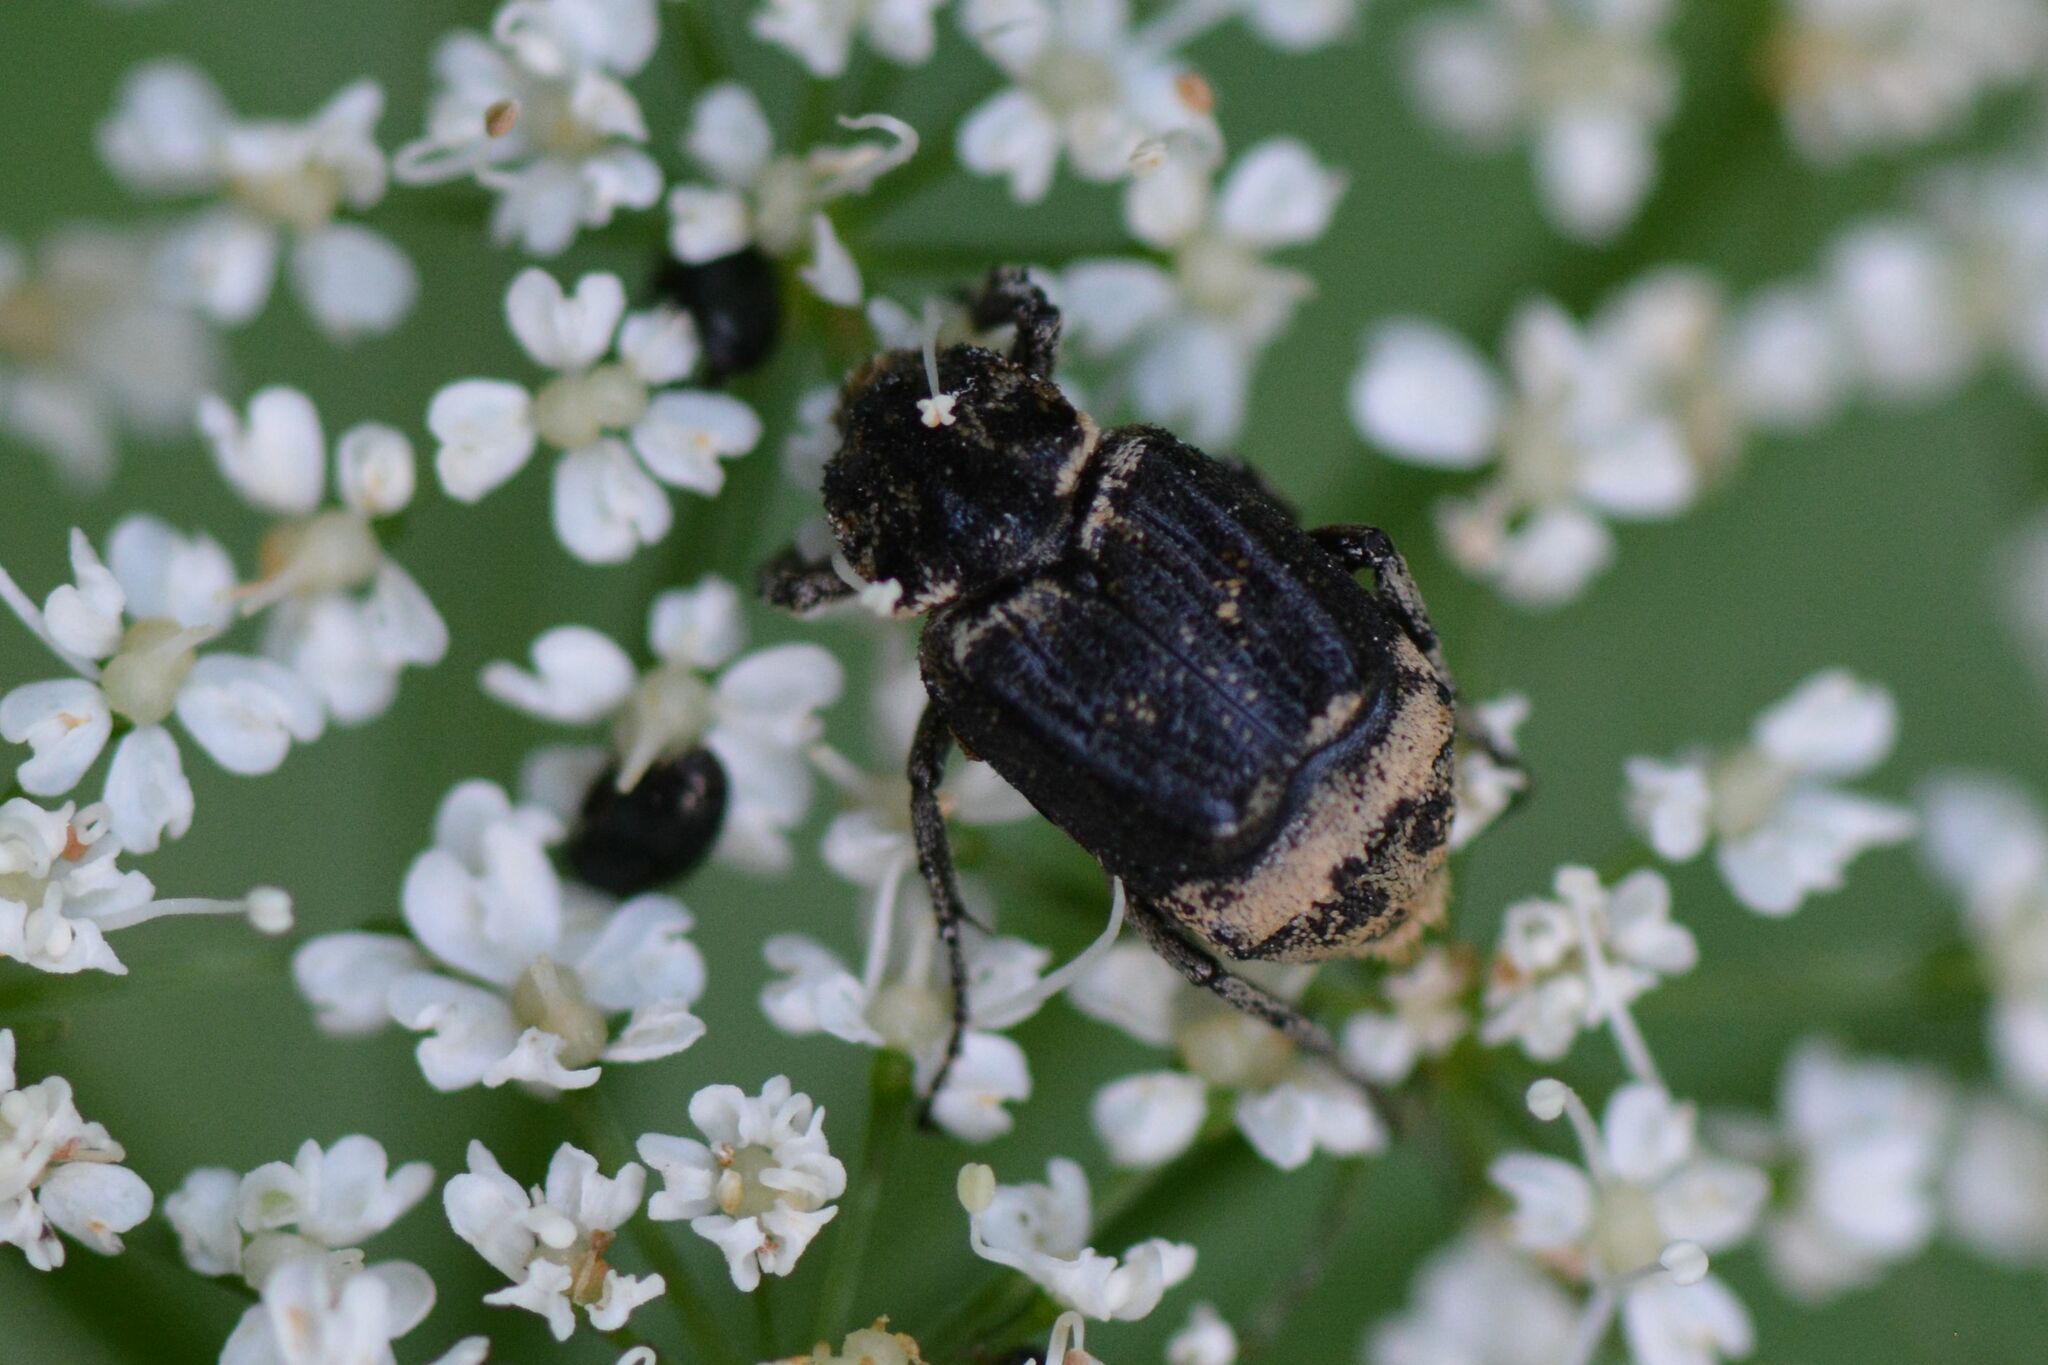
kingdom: Animalia
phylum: Arthropoda
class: Insecta
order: Coleoptera
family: Scarabaeidae
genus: Valgus
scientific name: Valgus hemipterus
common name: Bug flower chafer
